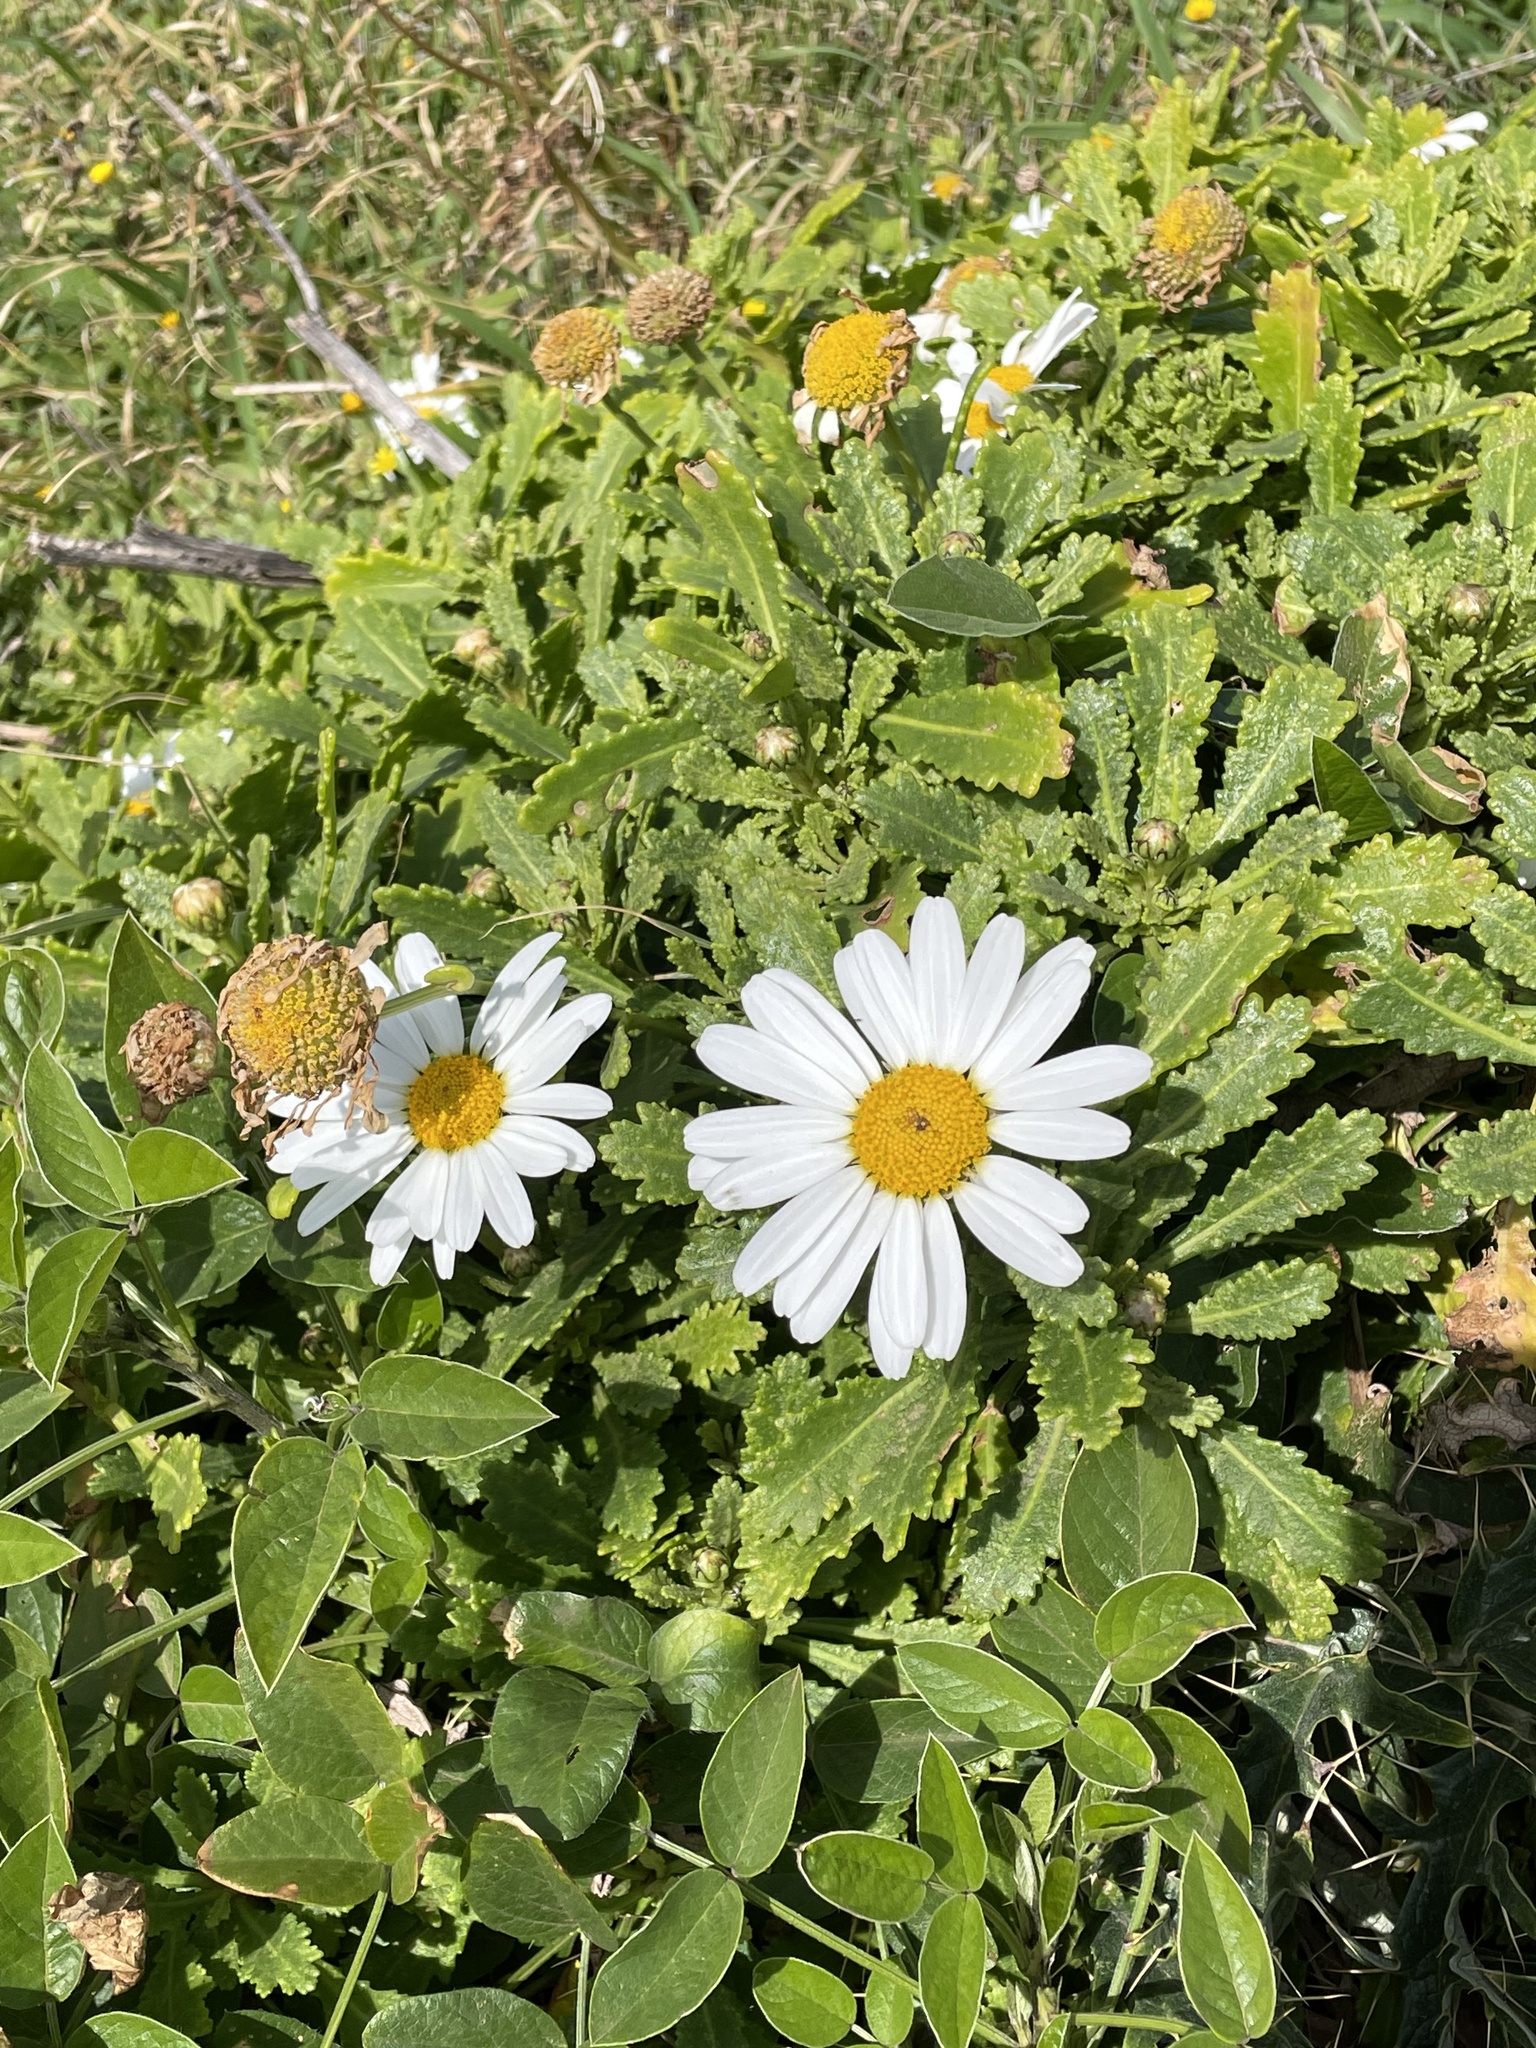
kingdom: Plantae
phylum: Tracheophyta
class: Magnoliopsida
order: Asterales
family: Asteraceae
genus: Argyranthemum
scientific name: Argyranthemum pinnatifidum
